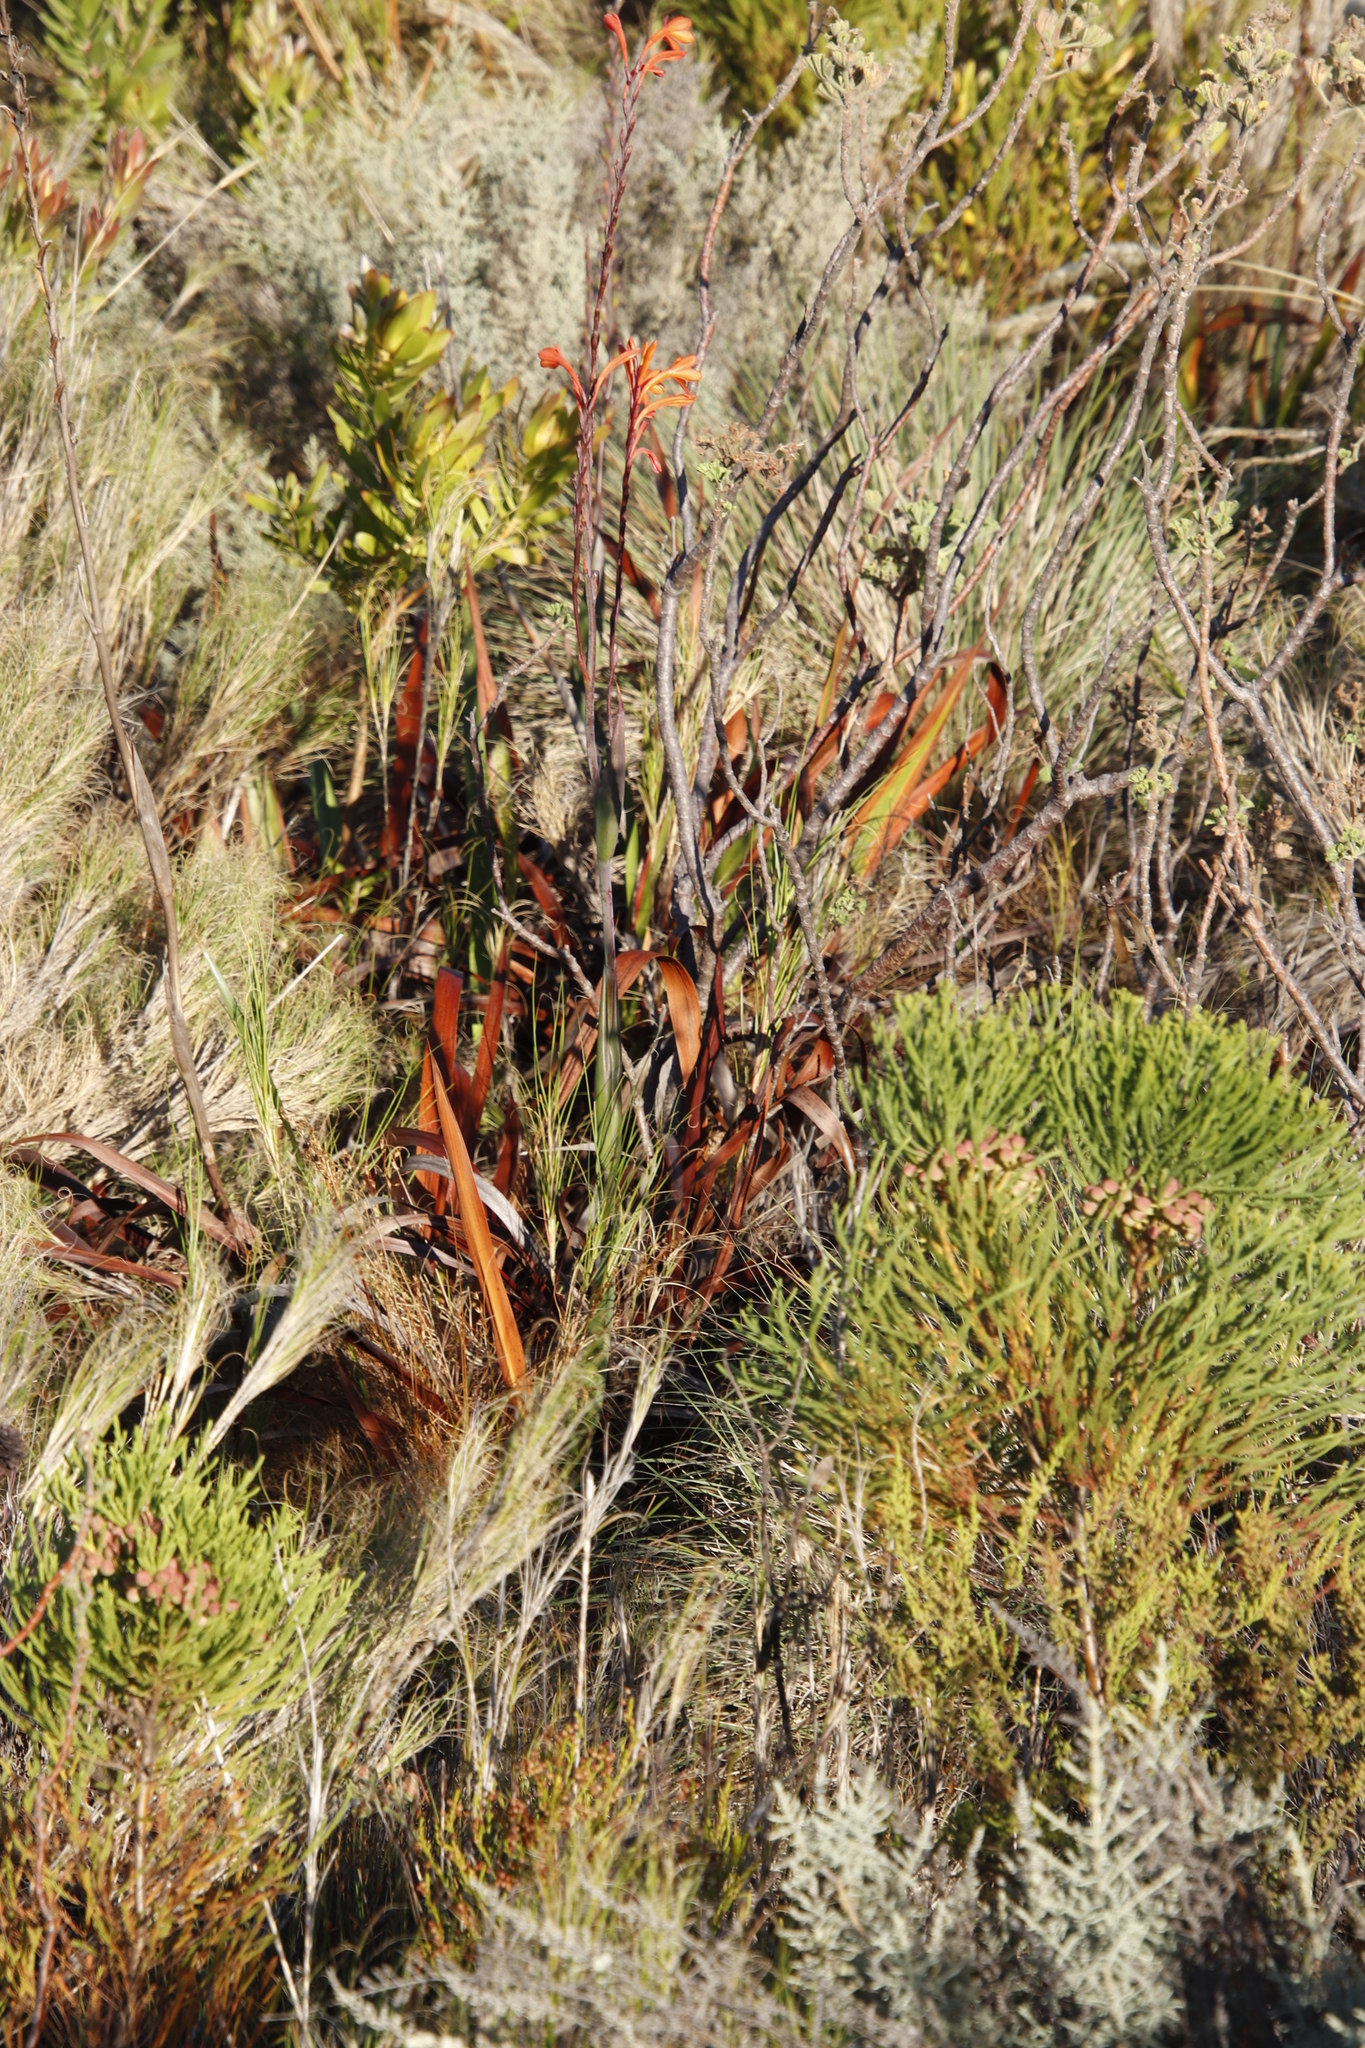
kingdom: Plantae
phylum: Tracheophyta
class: Liliopsida
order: Asparagales
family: Iridaceae
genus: Watsonia
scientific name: Watsonia tabularis
